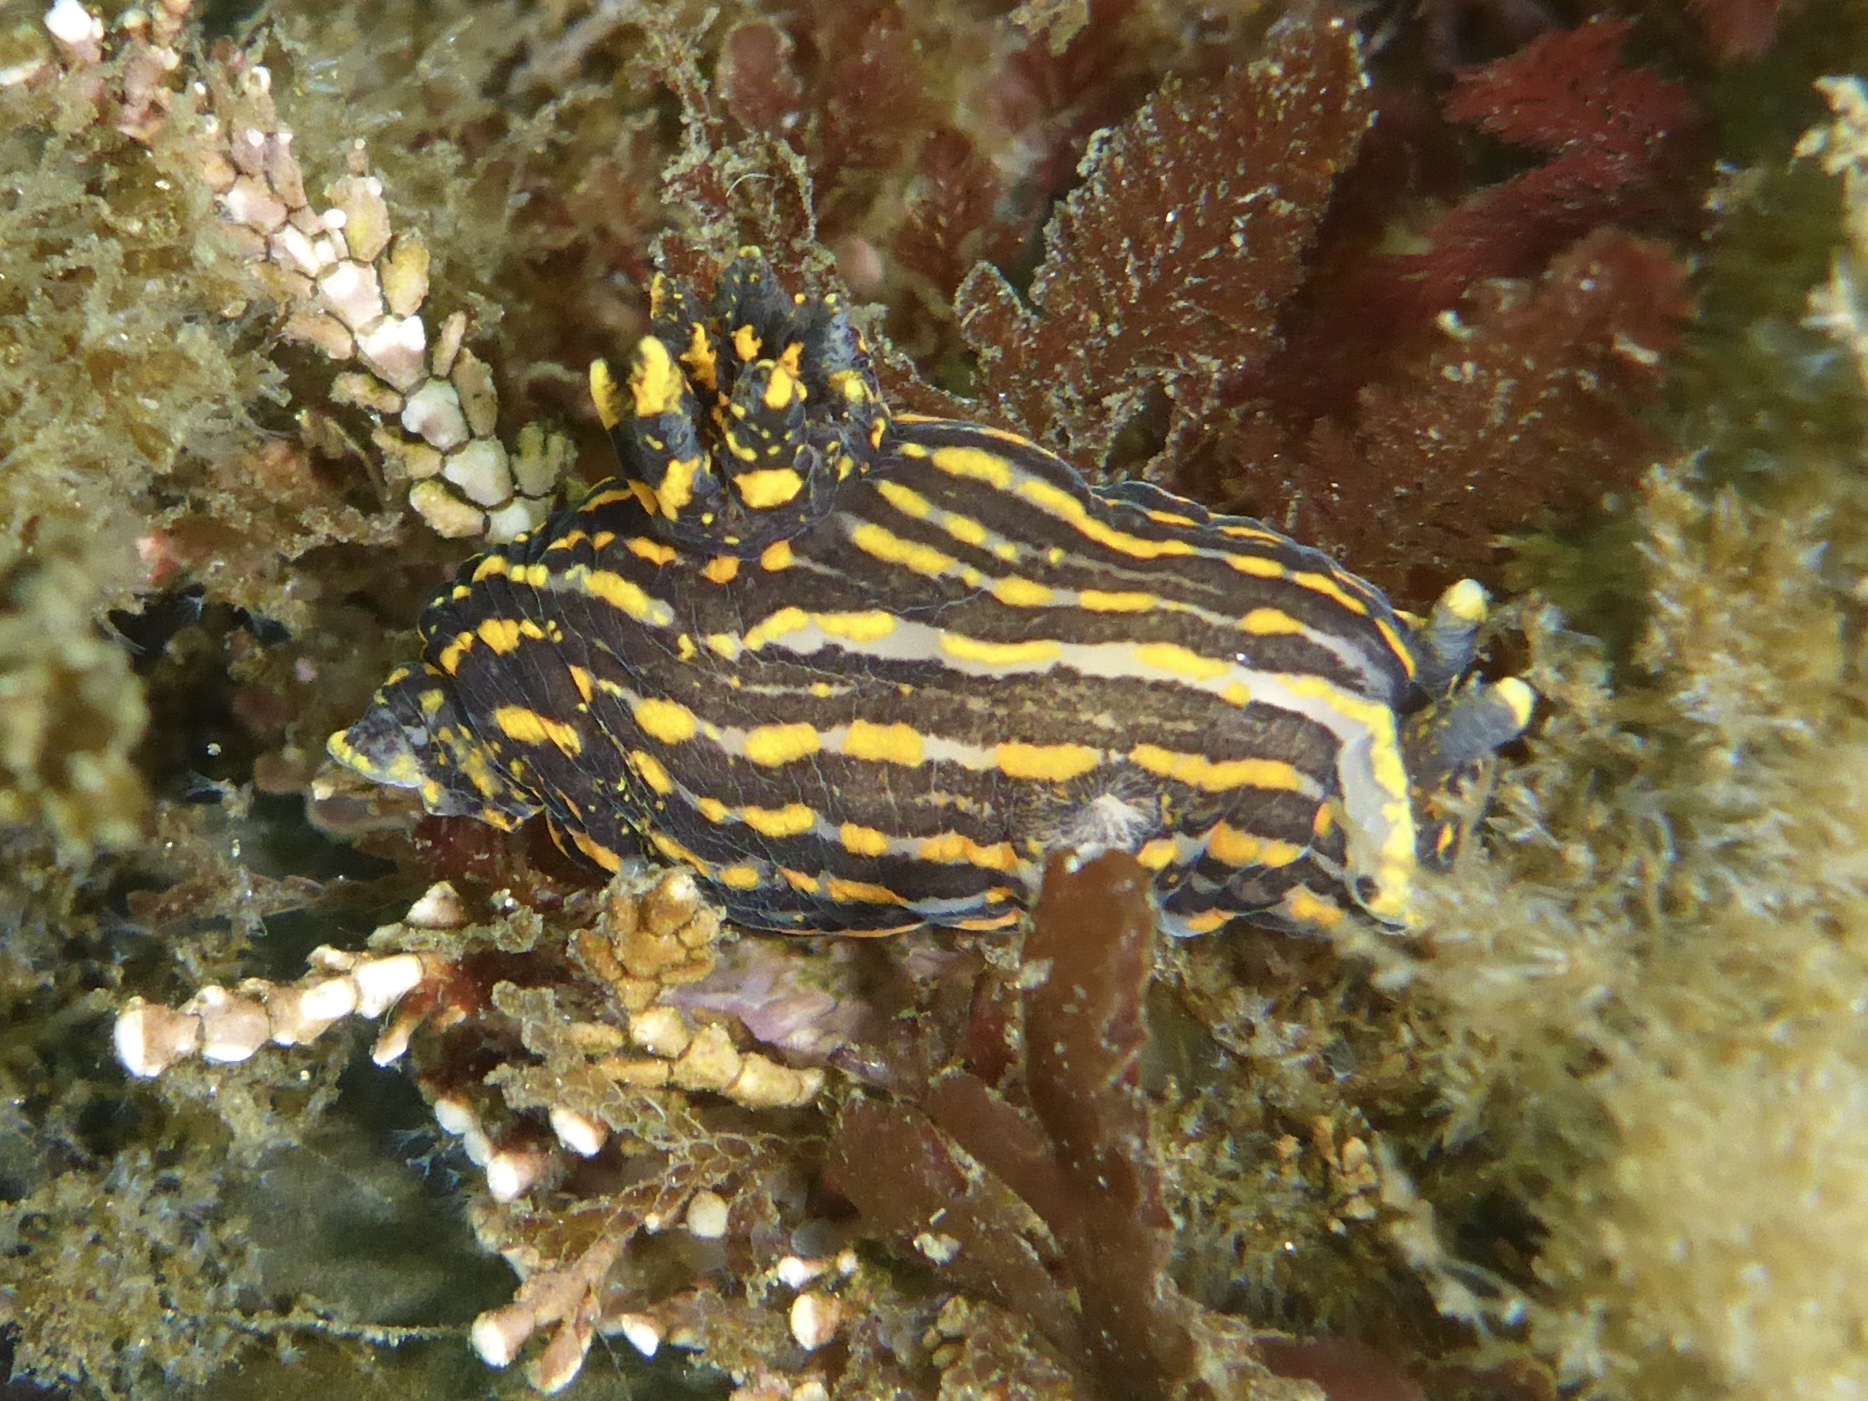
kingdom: Animalia
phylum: Mollusca
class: Gastropoda
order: Nudibranchia
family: Polyceridae
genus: Polycera
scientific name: Polycera atra
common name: Orange-spike polycera
